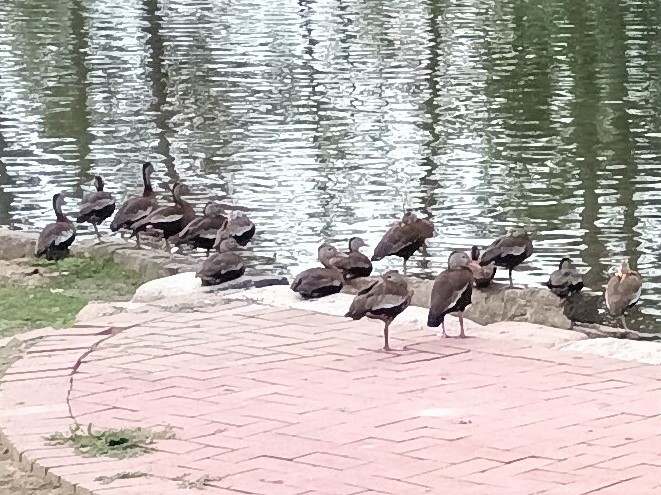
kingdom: Animalia
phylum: Chordata
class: Aves
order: Anseriformes
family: Anatidae
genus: Dendrocygna
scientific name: Dendrocygna autumnalis
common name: Black-bellied whistling duck
